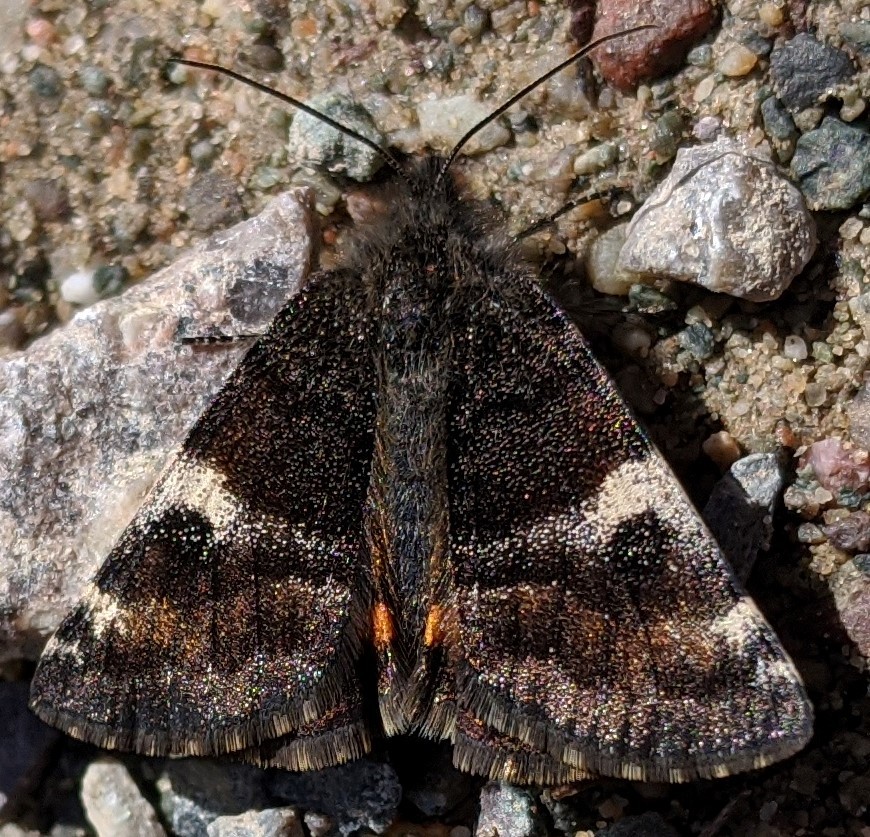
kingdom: Animalia
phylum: Arthropoda
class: Insecta
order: Lepidoptera
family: Geometridae
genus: Archiearis
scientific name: Archiearis infans
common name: First born geometer
